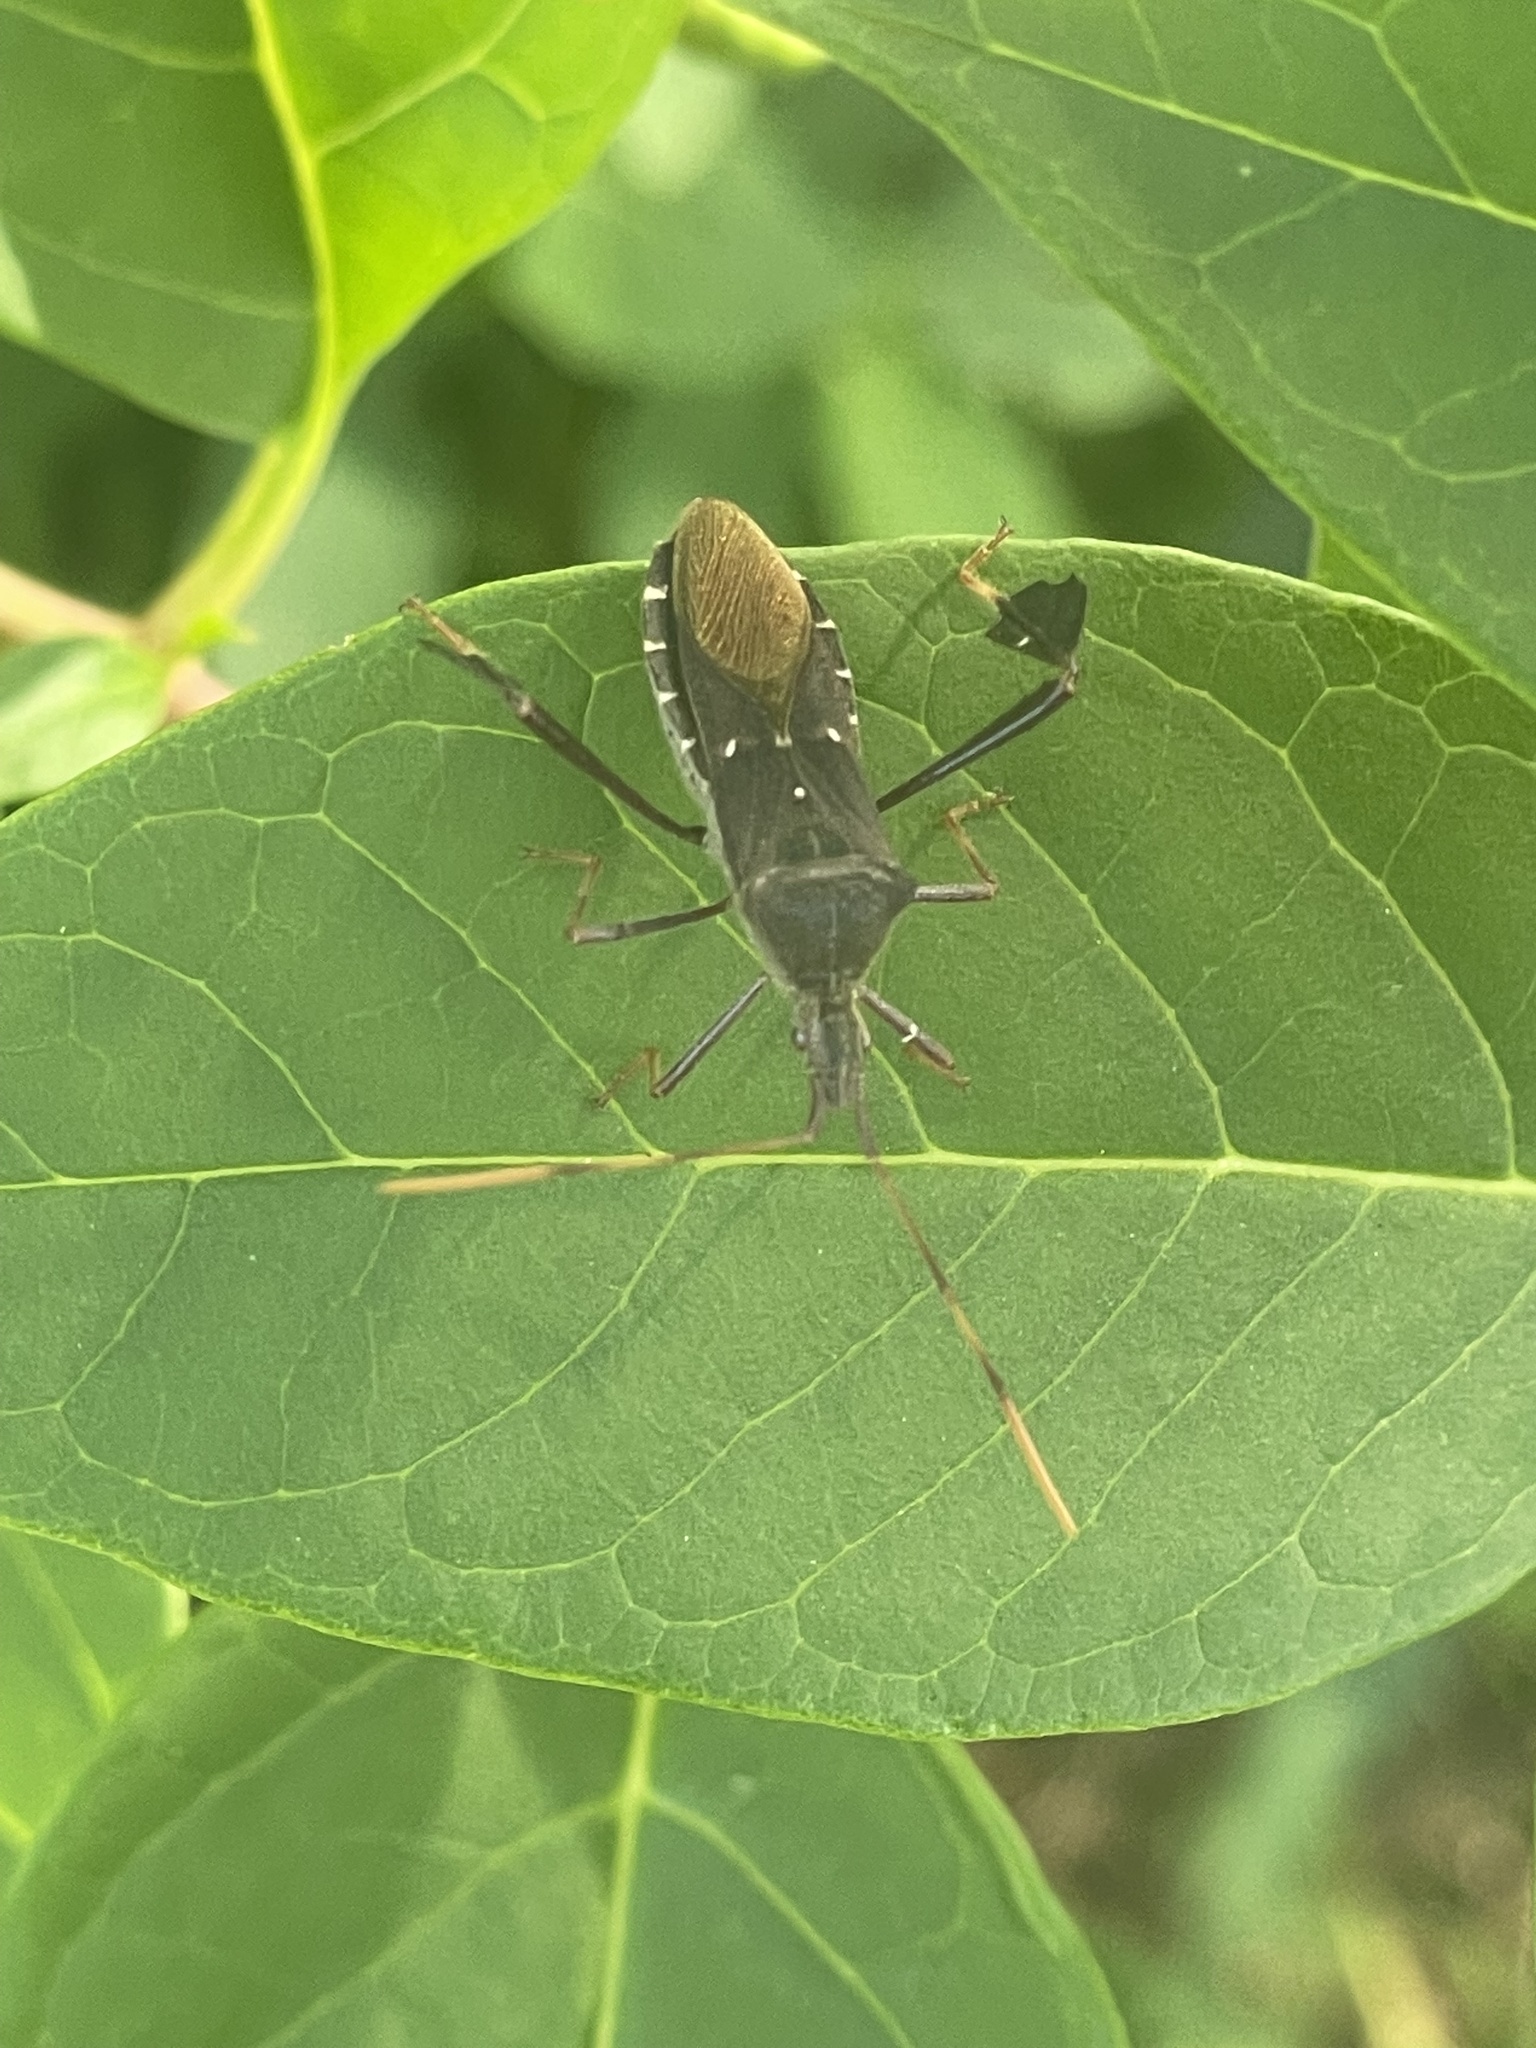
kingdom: Animalia
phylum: Arthropoda
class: Insecta
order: Hemiptera
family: Coreidae
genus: Leptoglossus
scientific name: Leptoglossus oppositus
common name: Northern leaf-footed bug
